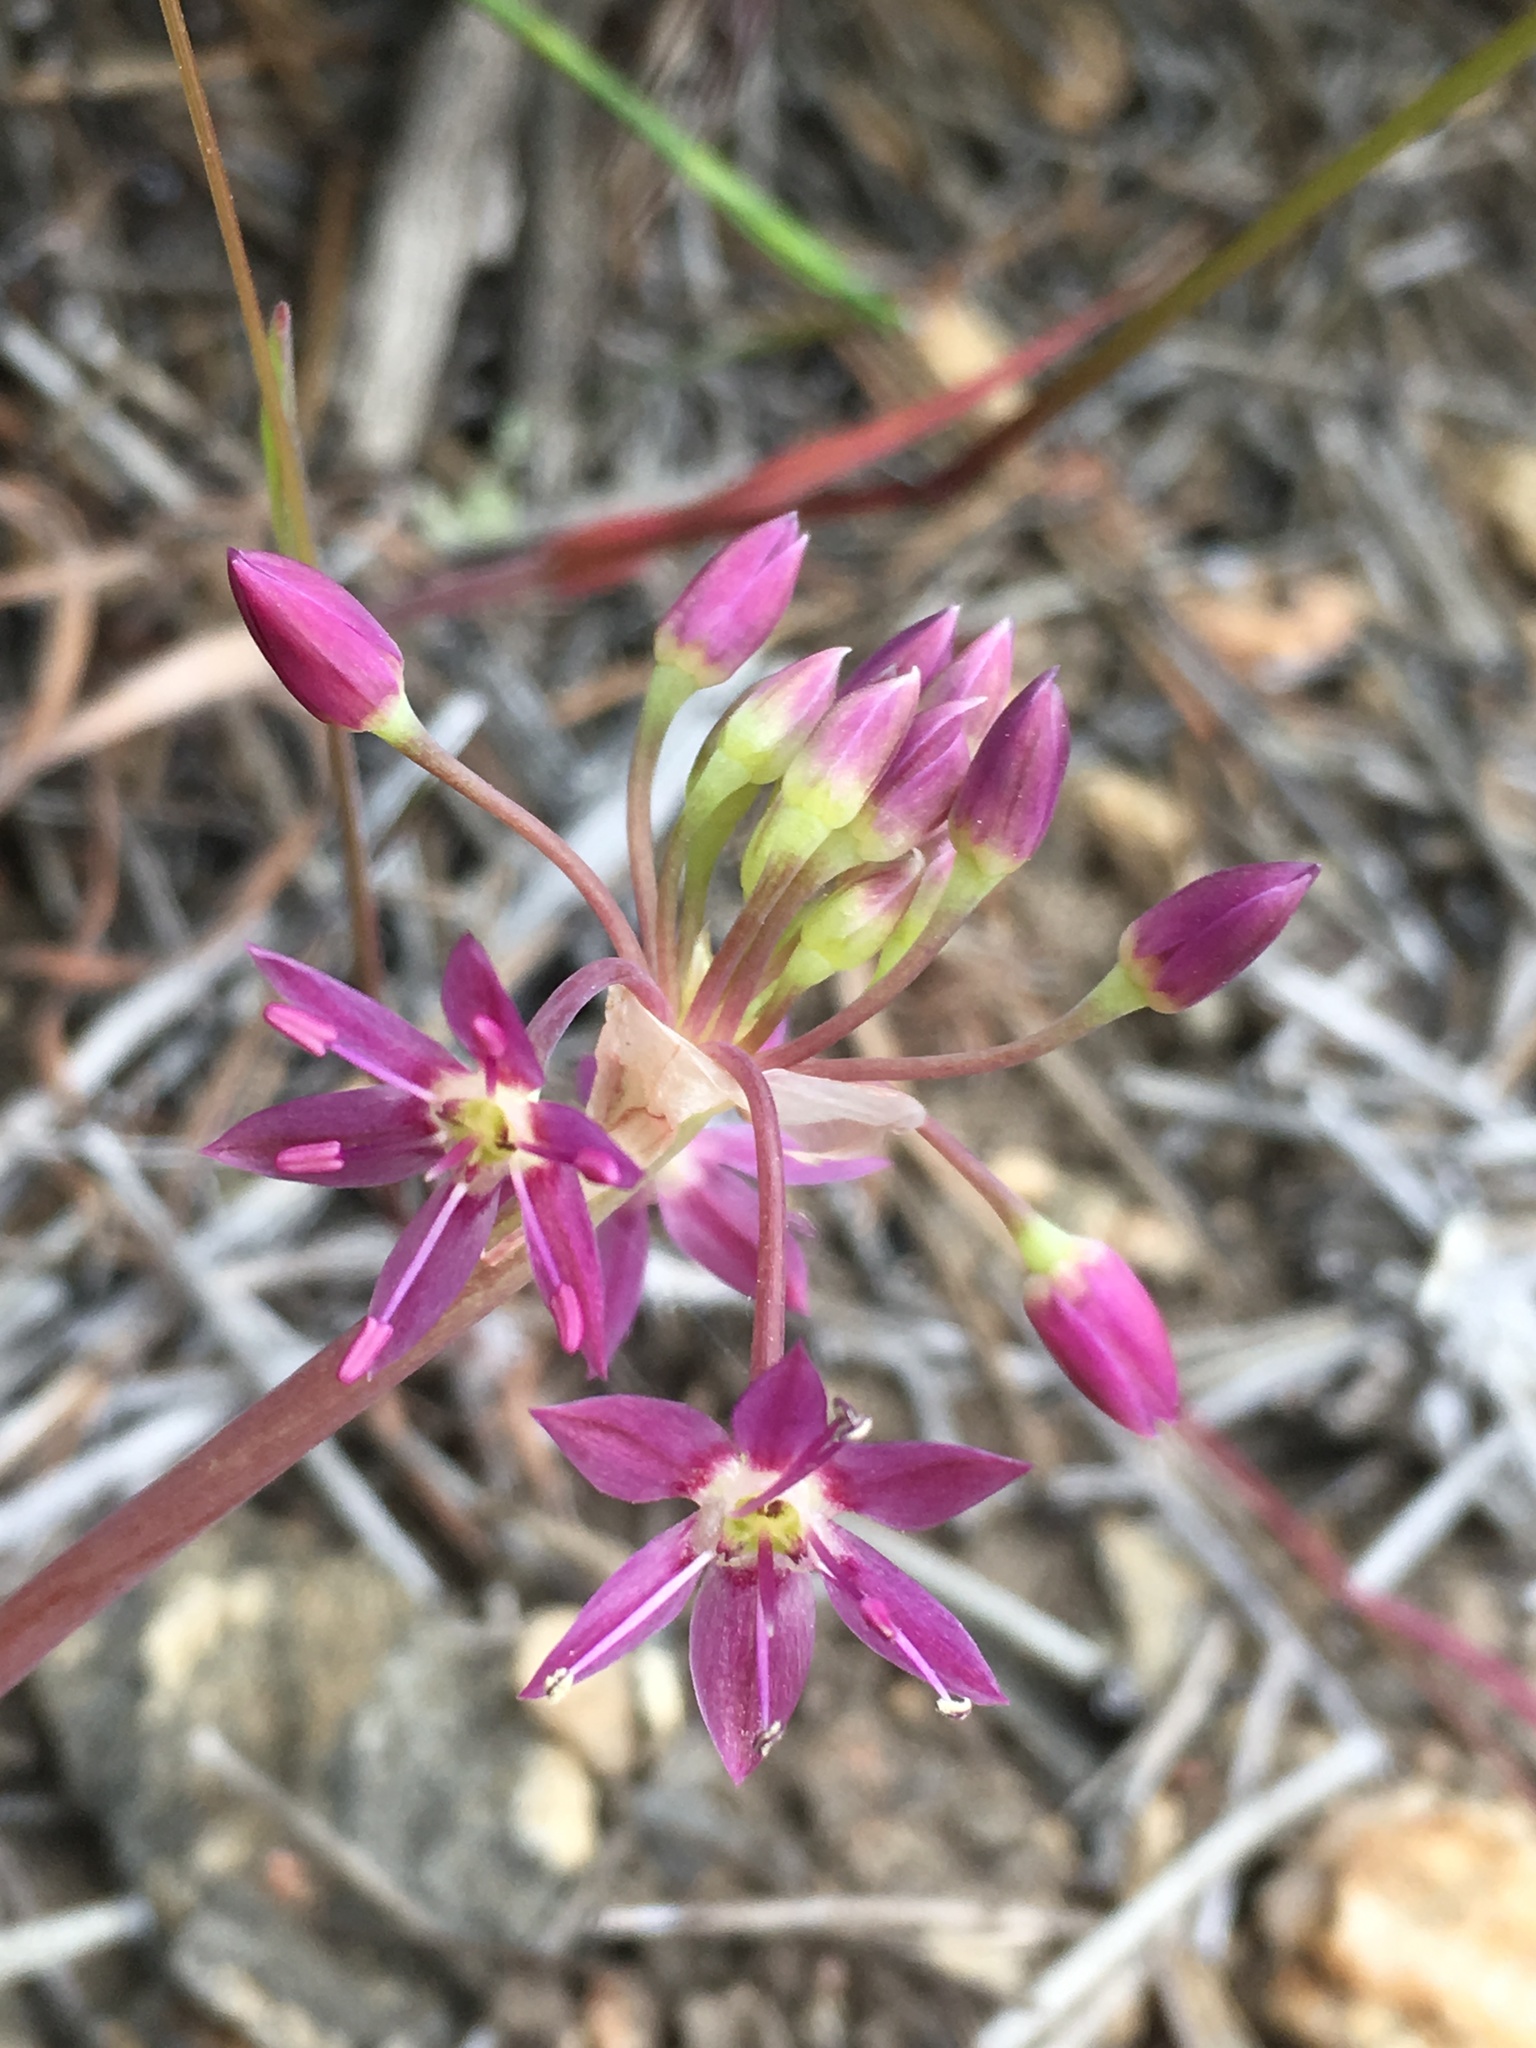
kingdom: Plantae
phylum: Tracheophyta
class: Liliopsida
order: Asparagales
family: Amaryllidaceae
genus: Allium
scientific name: Allium campanulatum
